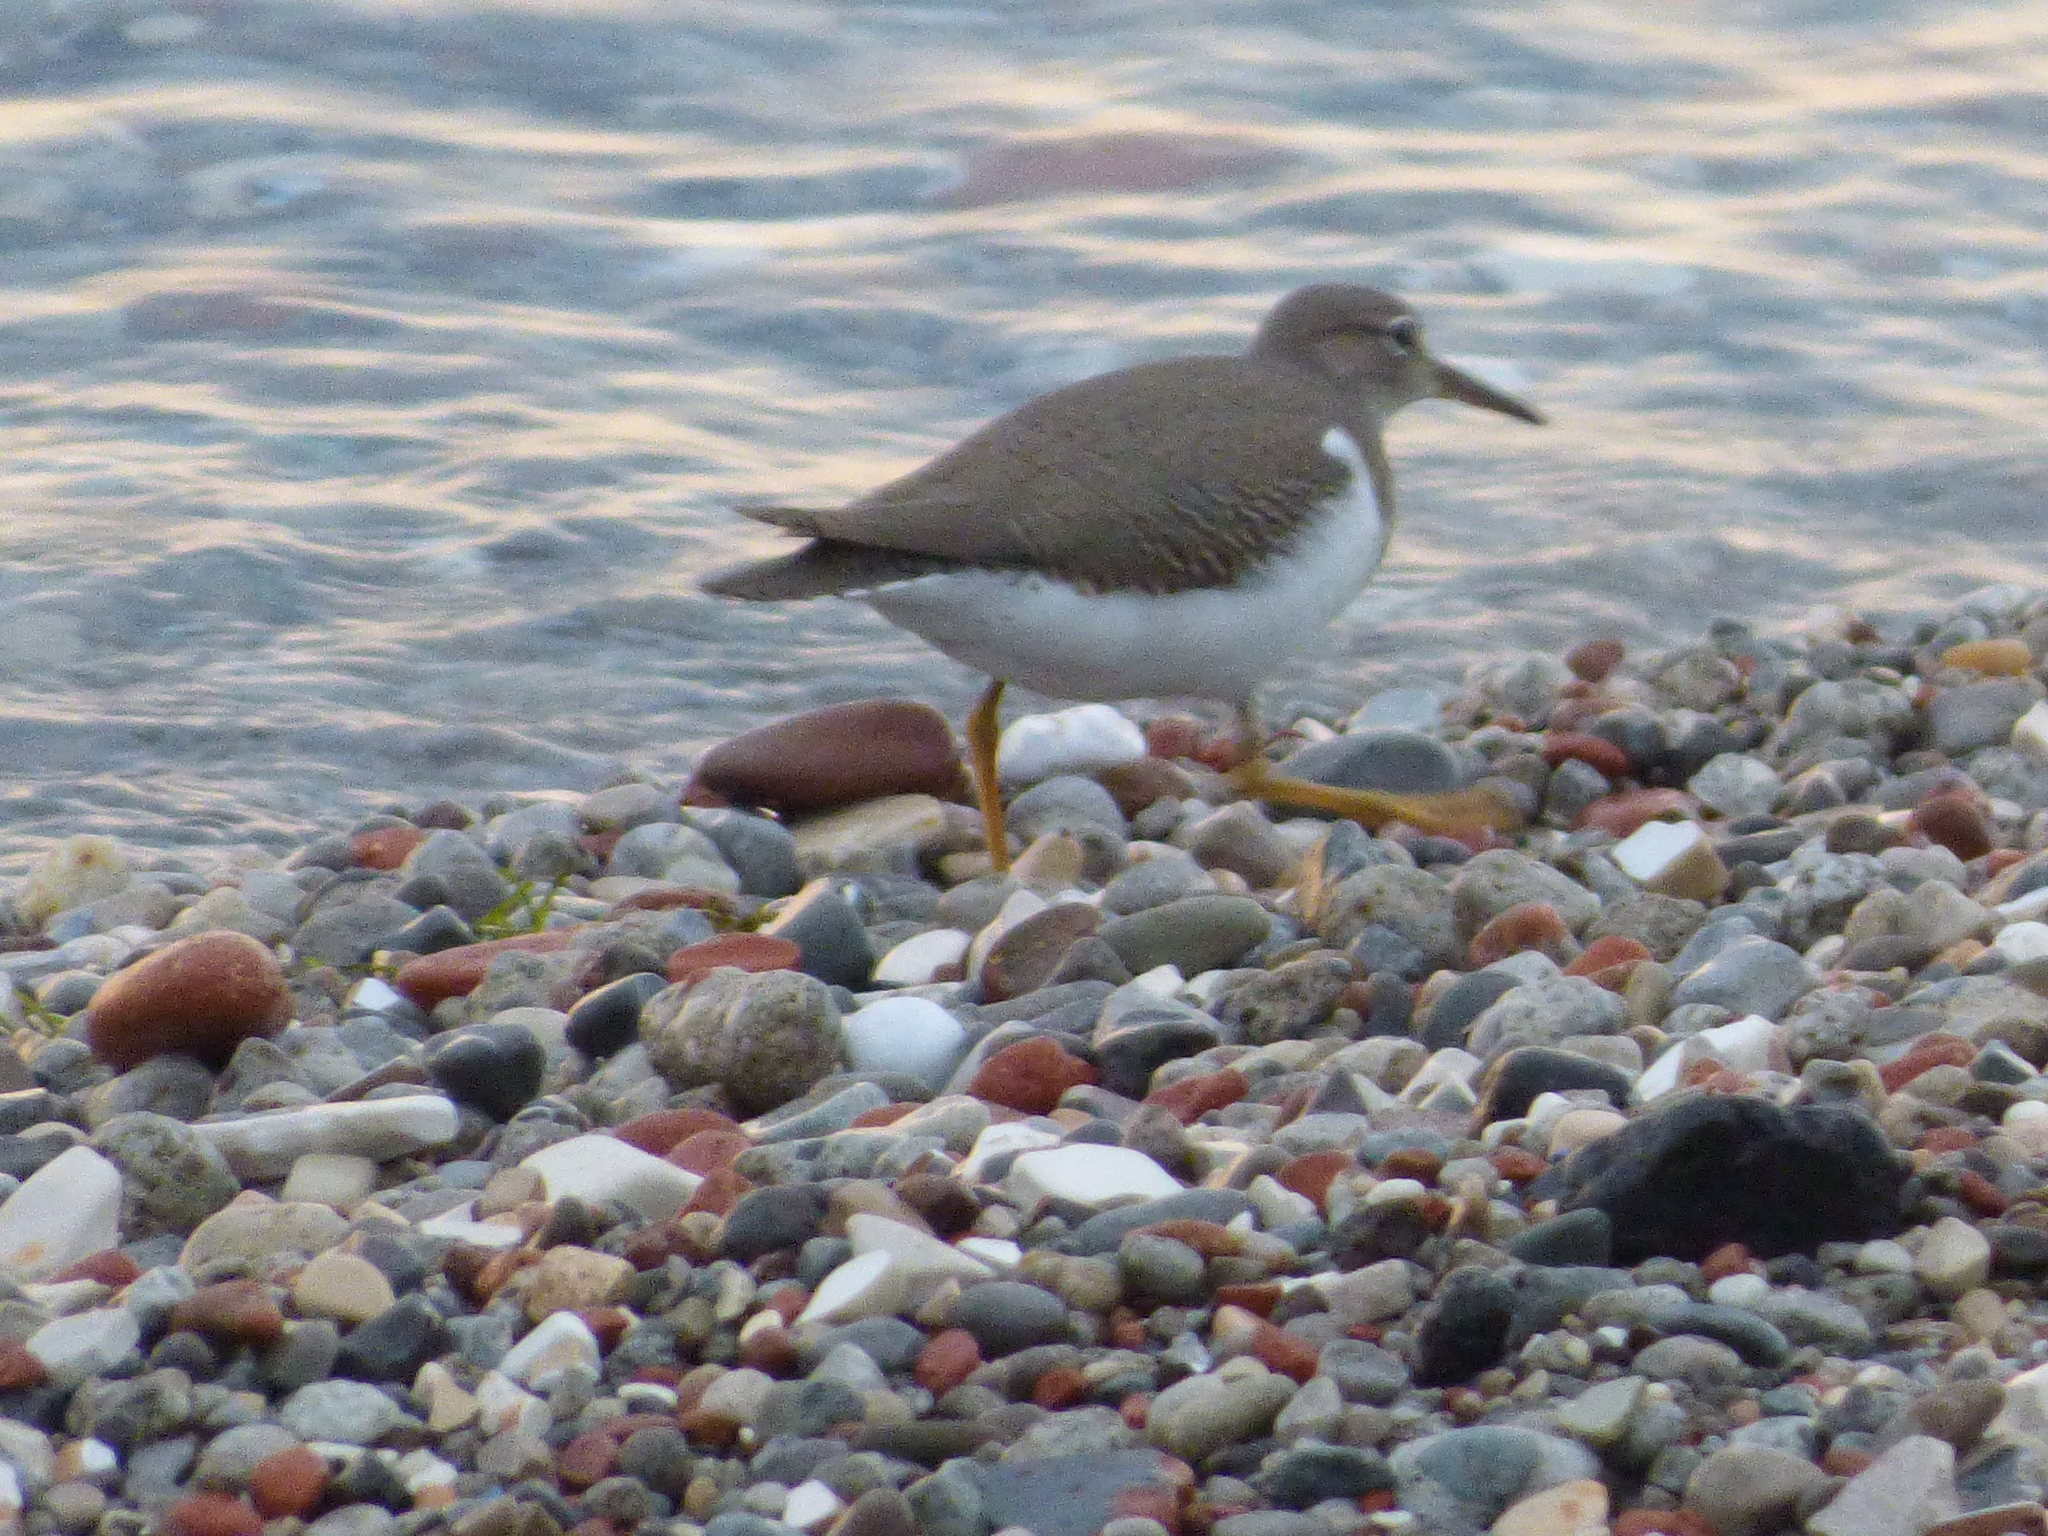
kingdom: Animalia
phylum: Chordata
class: Aves
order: Charadriiformes
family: Scolopacidae
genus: Actitis
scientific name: Actitis macularius
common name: Spotted sandpiper
